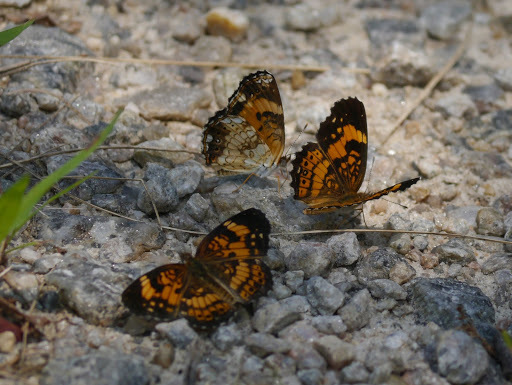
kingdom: Animalia
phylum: Arthropoda
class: Insecta
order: Lepidoptera
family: Nymphalidae
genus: Phyciodes
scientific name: Phyciodes tharos
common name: Pearl crescent
